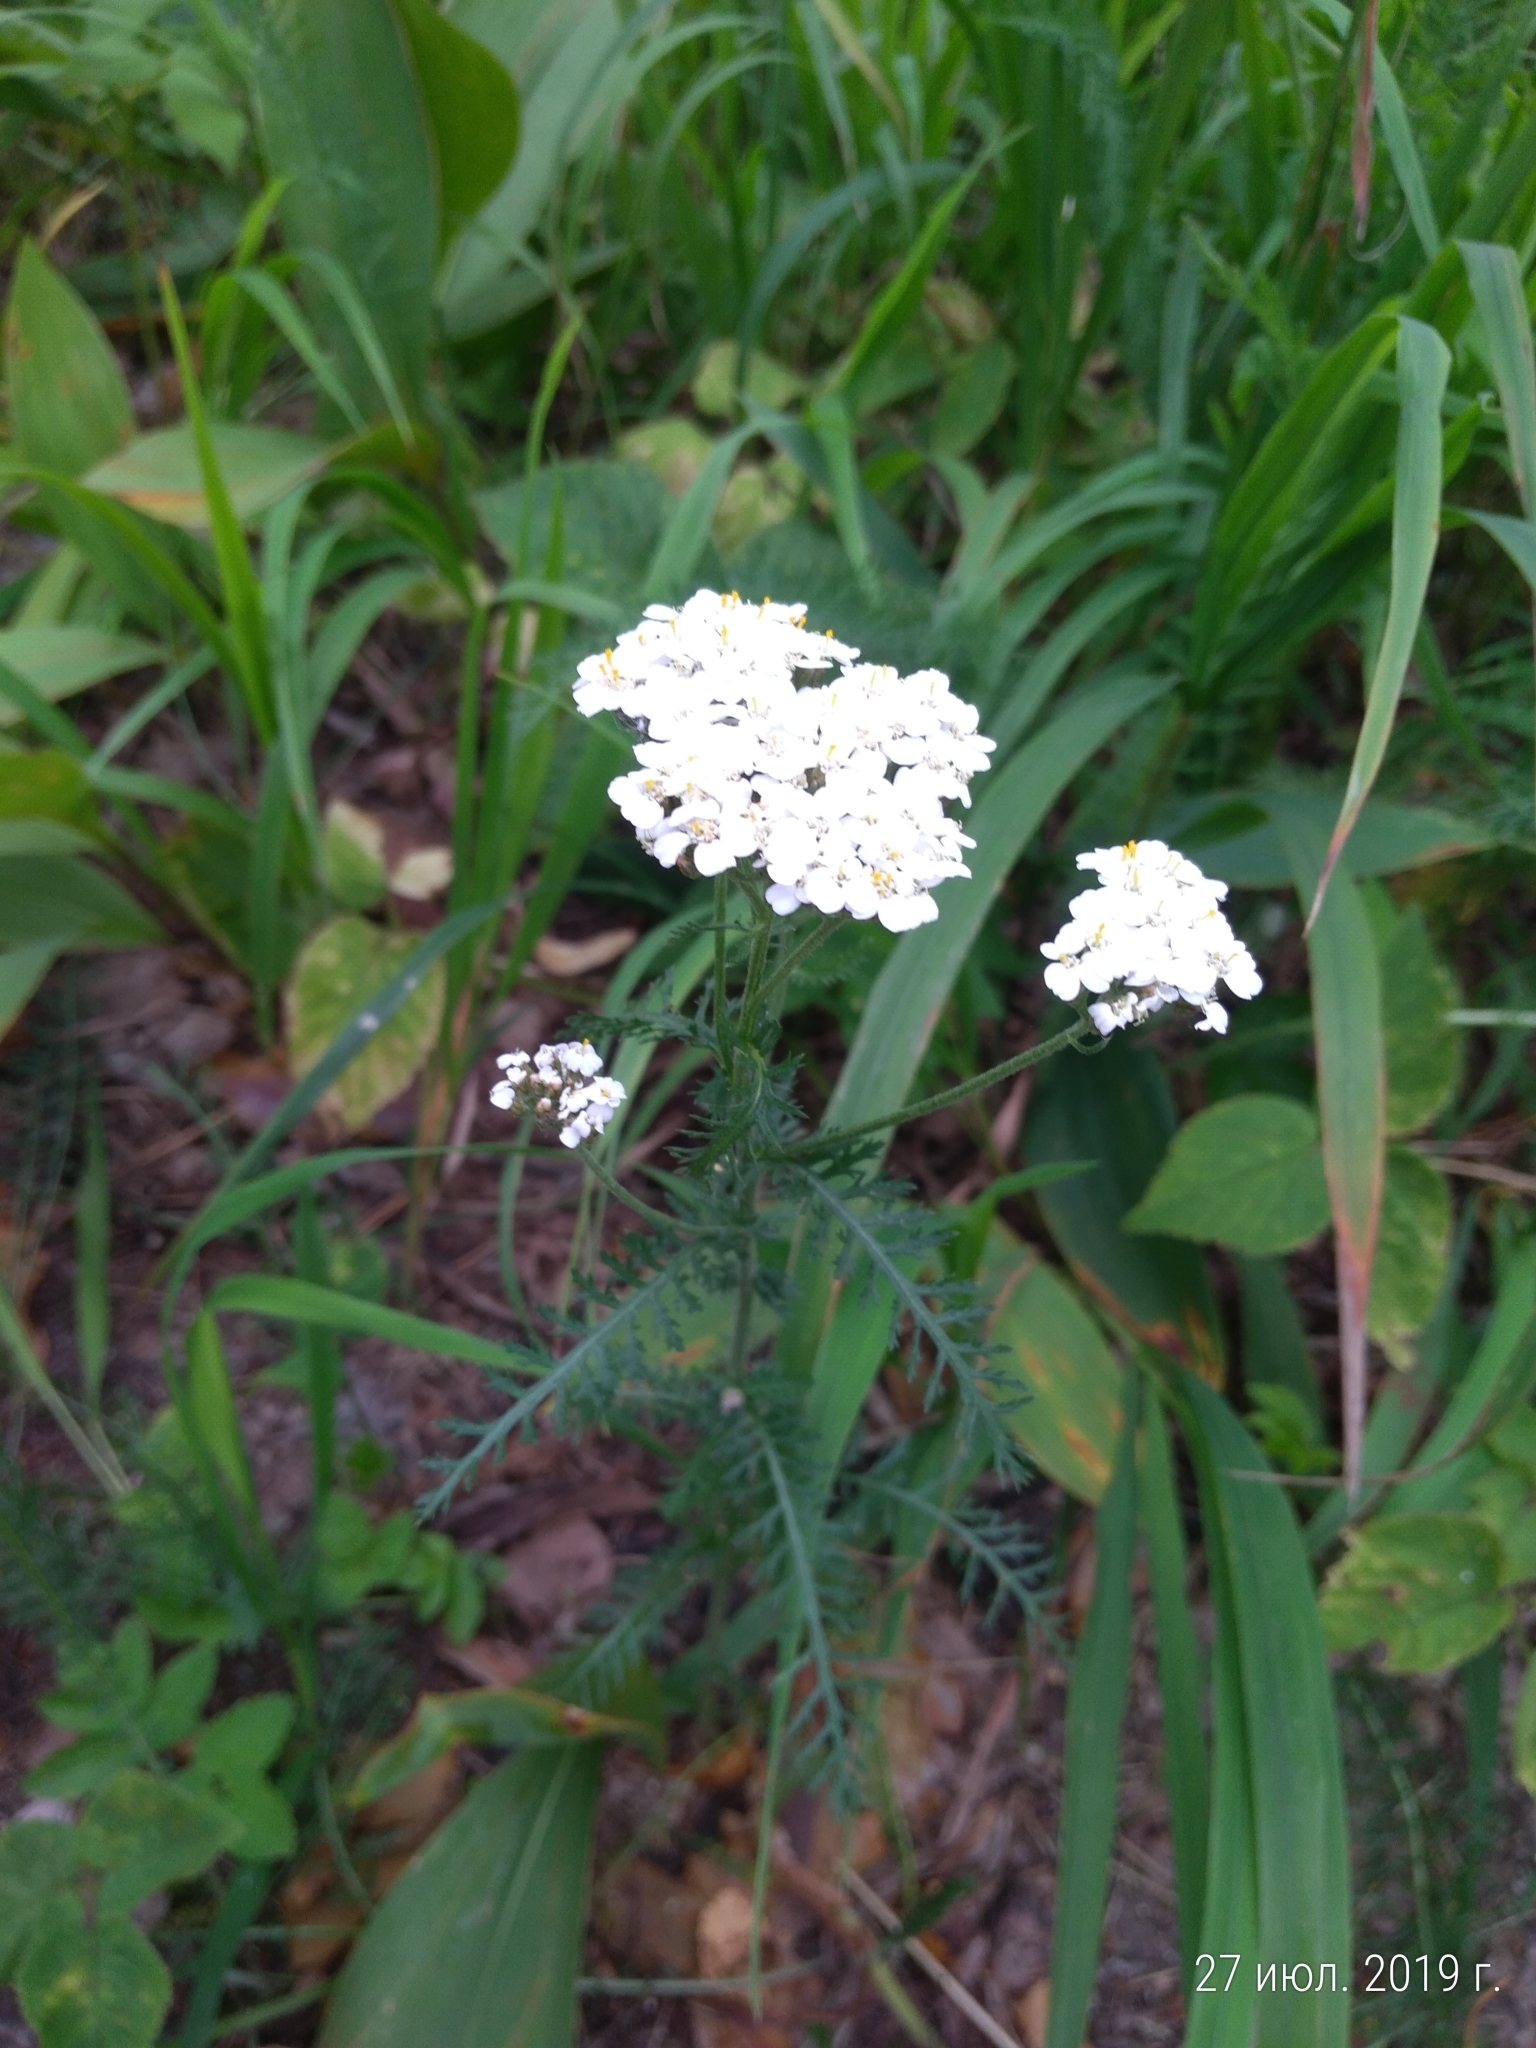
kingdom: Plantae
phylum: Tracheophyta
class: Magnoliopsida
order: Asterales
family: Asteraceae
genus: Achillea
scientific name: Achillea millefolium
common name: Yarrow
